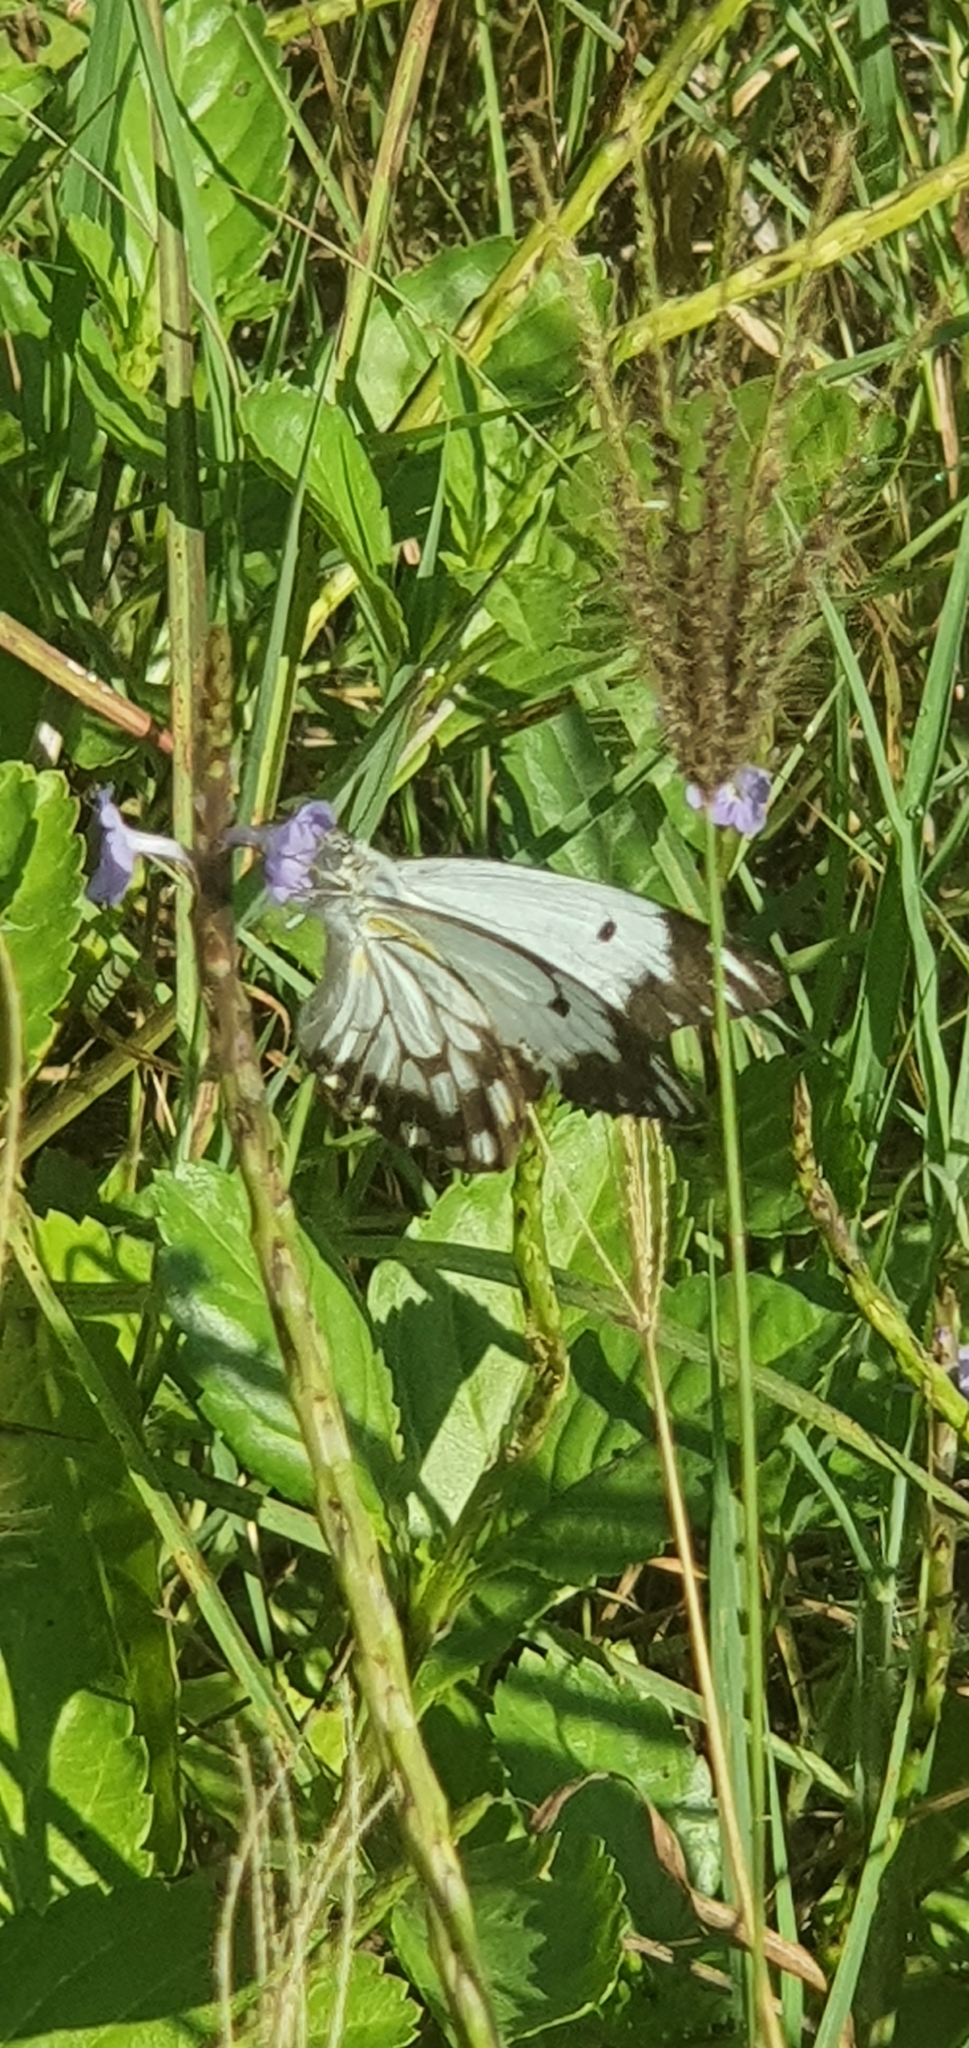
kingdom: Animalia
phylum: Arthropoda
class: Insecta
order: Lepidoptera
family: Pieridae
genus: Belenois
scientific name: Belenois java
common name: Caper white
